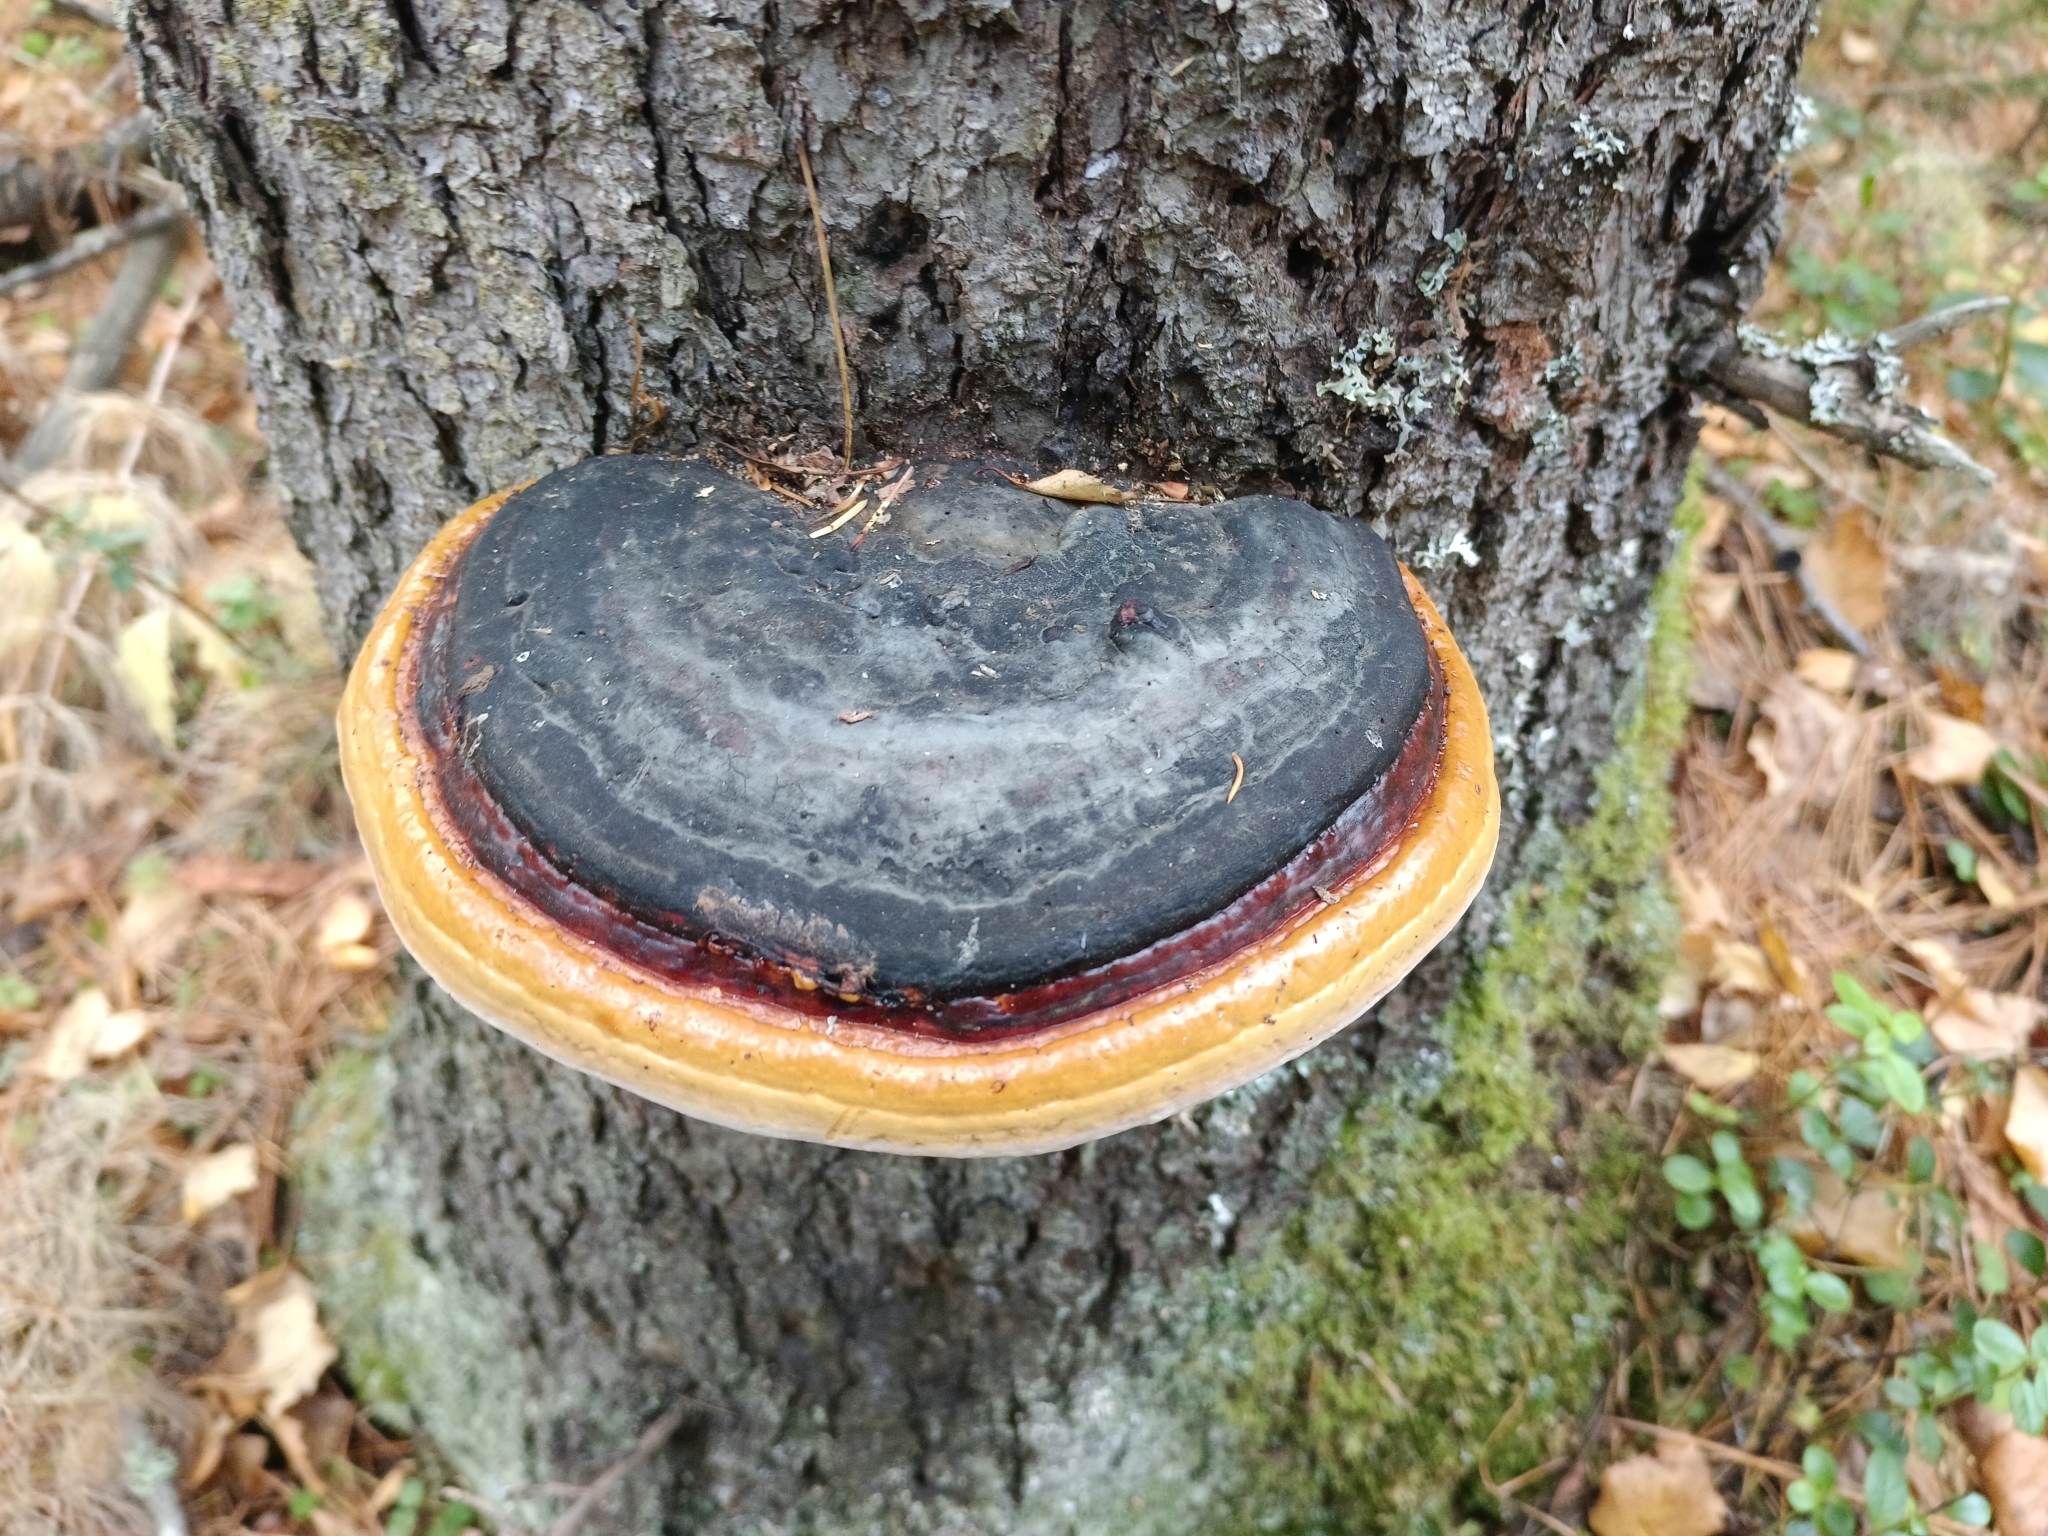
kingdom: Fungi
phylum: Basidiomycota
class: Agaricomycetes
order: Polyporales
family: Fomitopsidaceae
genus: Fomitopsis
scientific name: Fomitopsis pinicola
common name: Red-belted bracket
